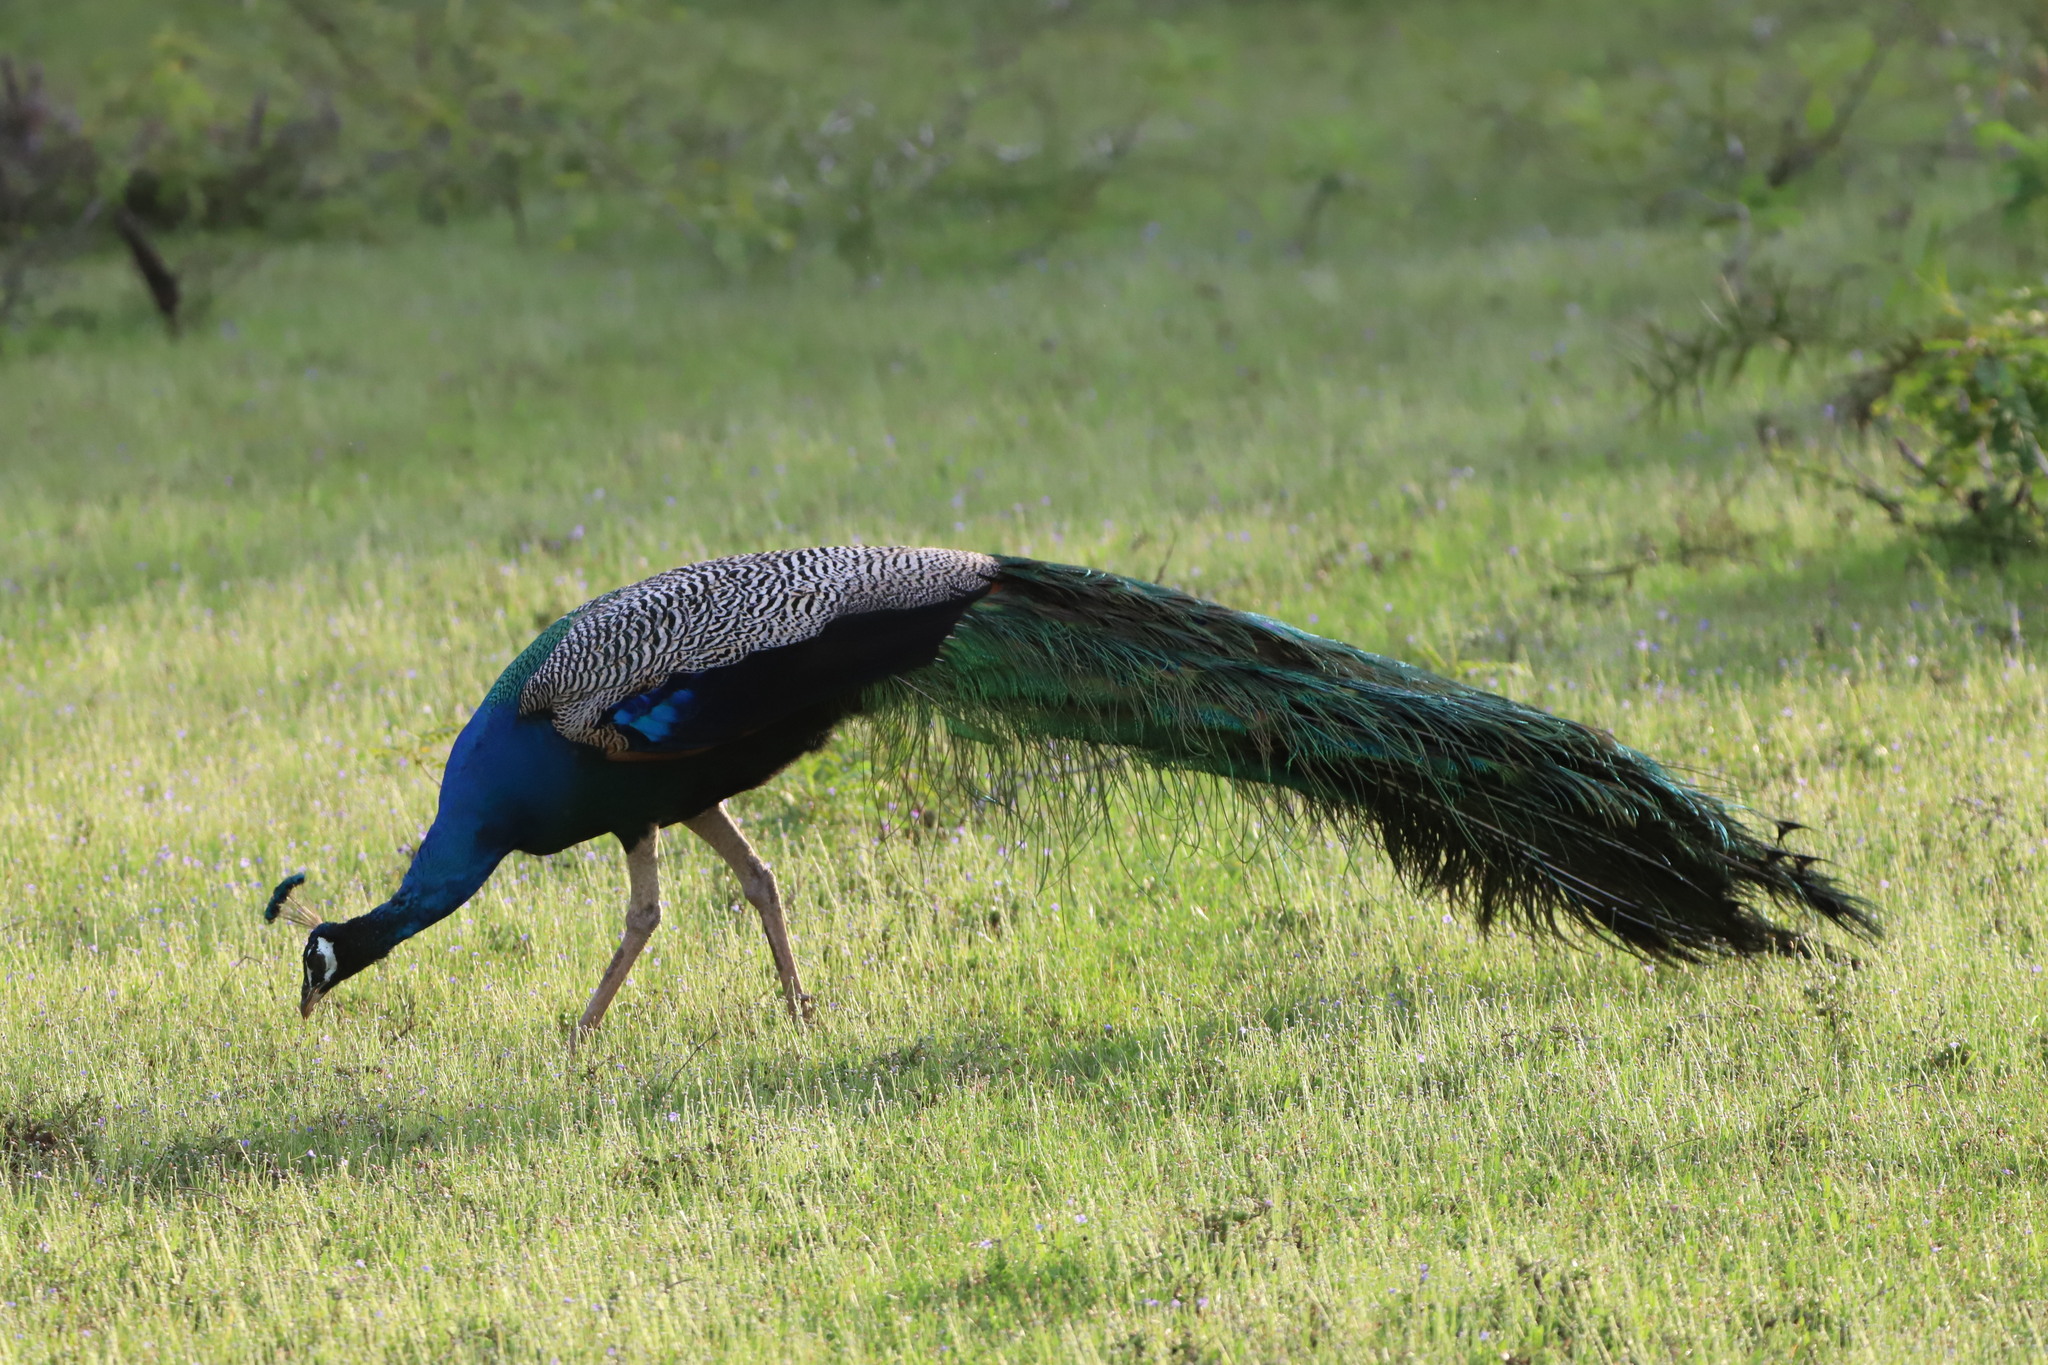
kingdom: Animalia
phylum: Chordata
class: Aves
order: Galliformes
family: Phasianidae
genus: Pavo
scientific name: Pavo cristatus
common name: Indian peafowl
